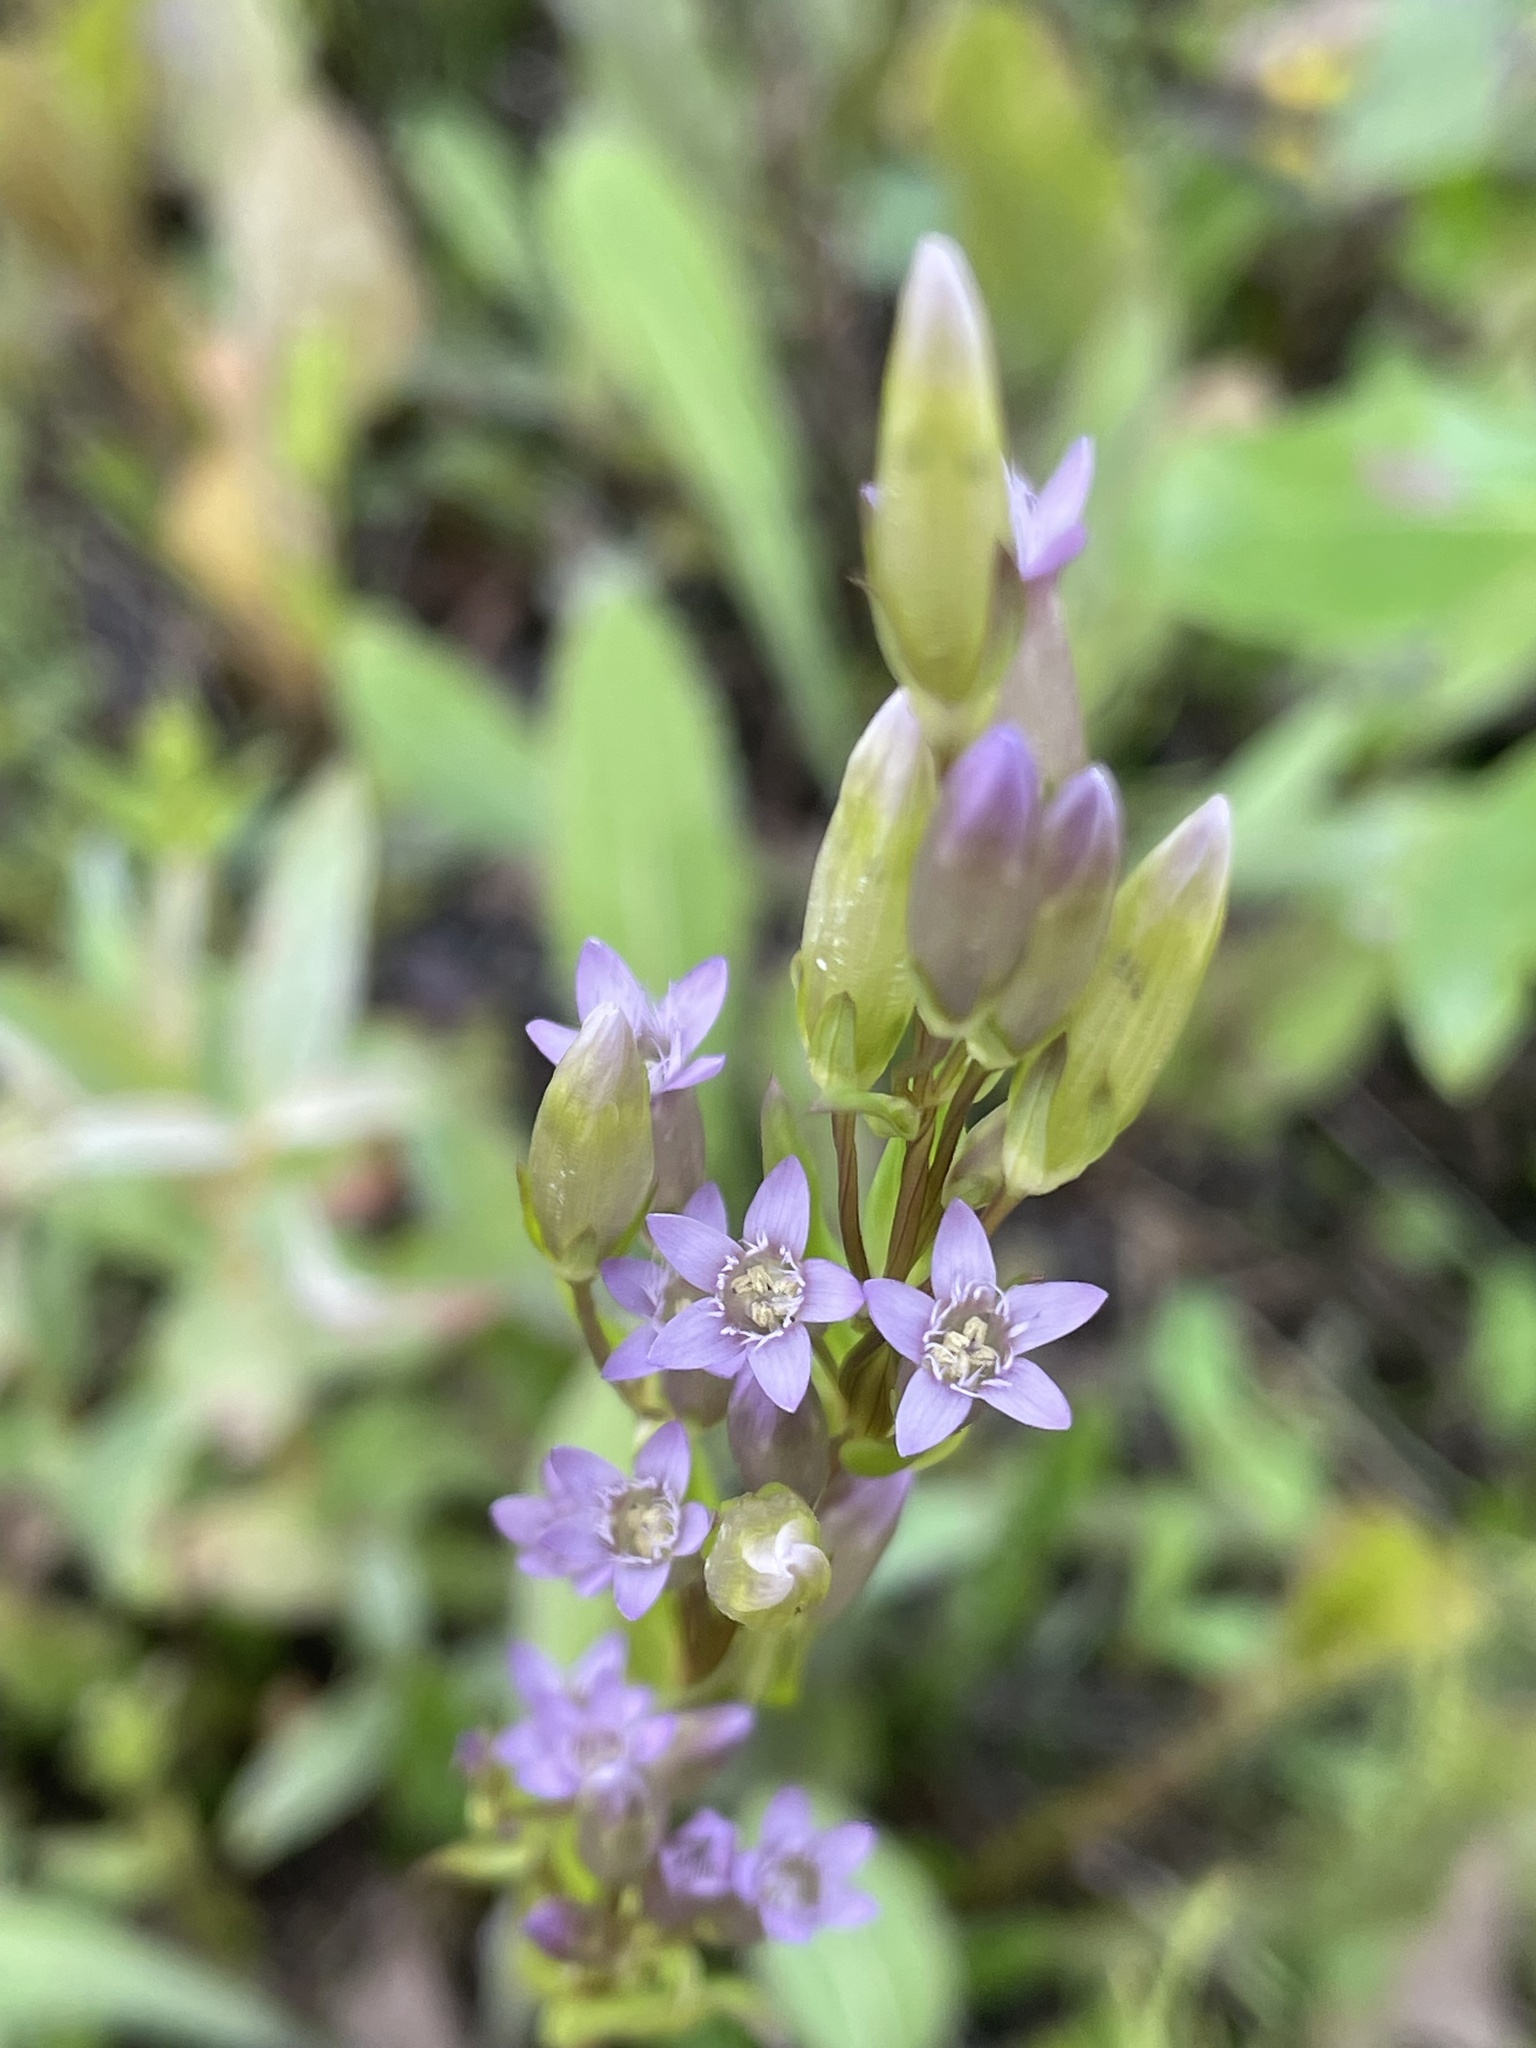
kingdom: Plantae
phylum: Tracheophyta
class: Magnoliopsida
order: Gentianales
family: Gentianaceae
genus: Gentianella
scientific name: Gentianella amarella
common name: Autumn gentian
